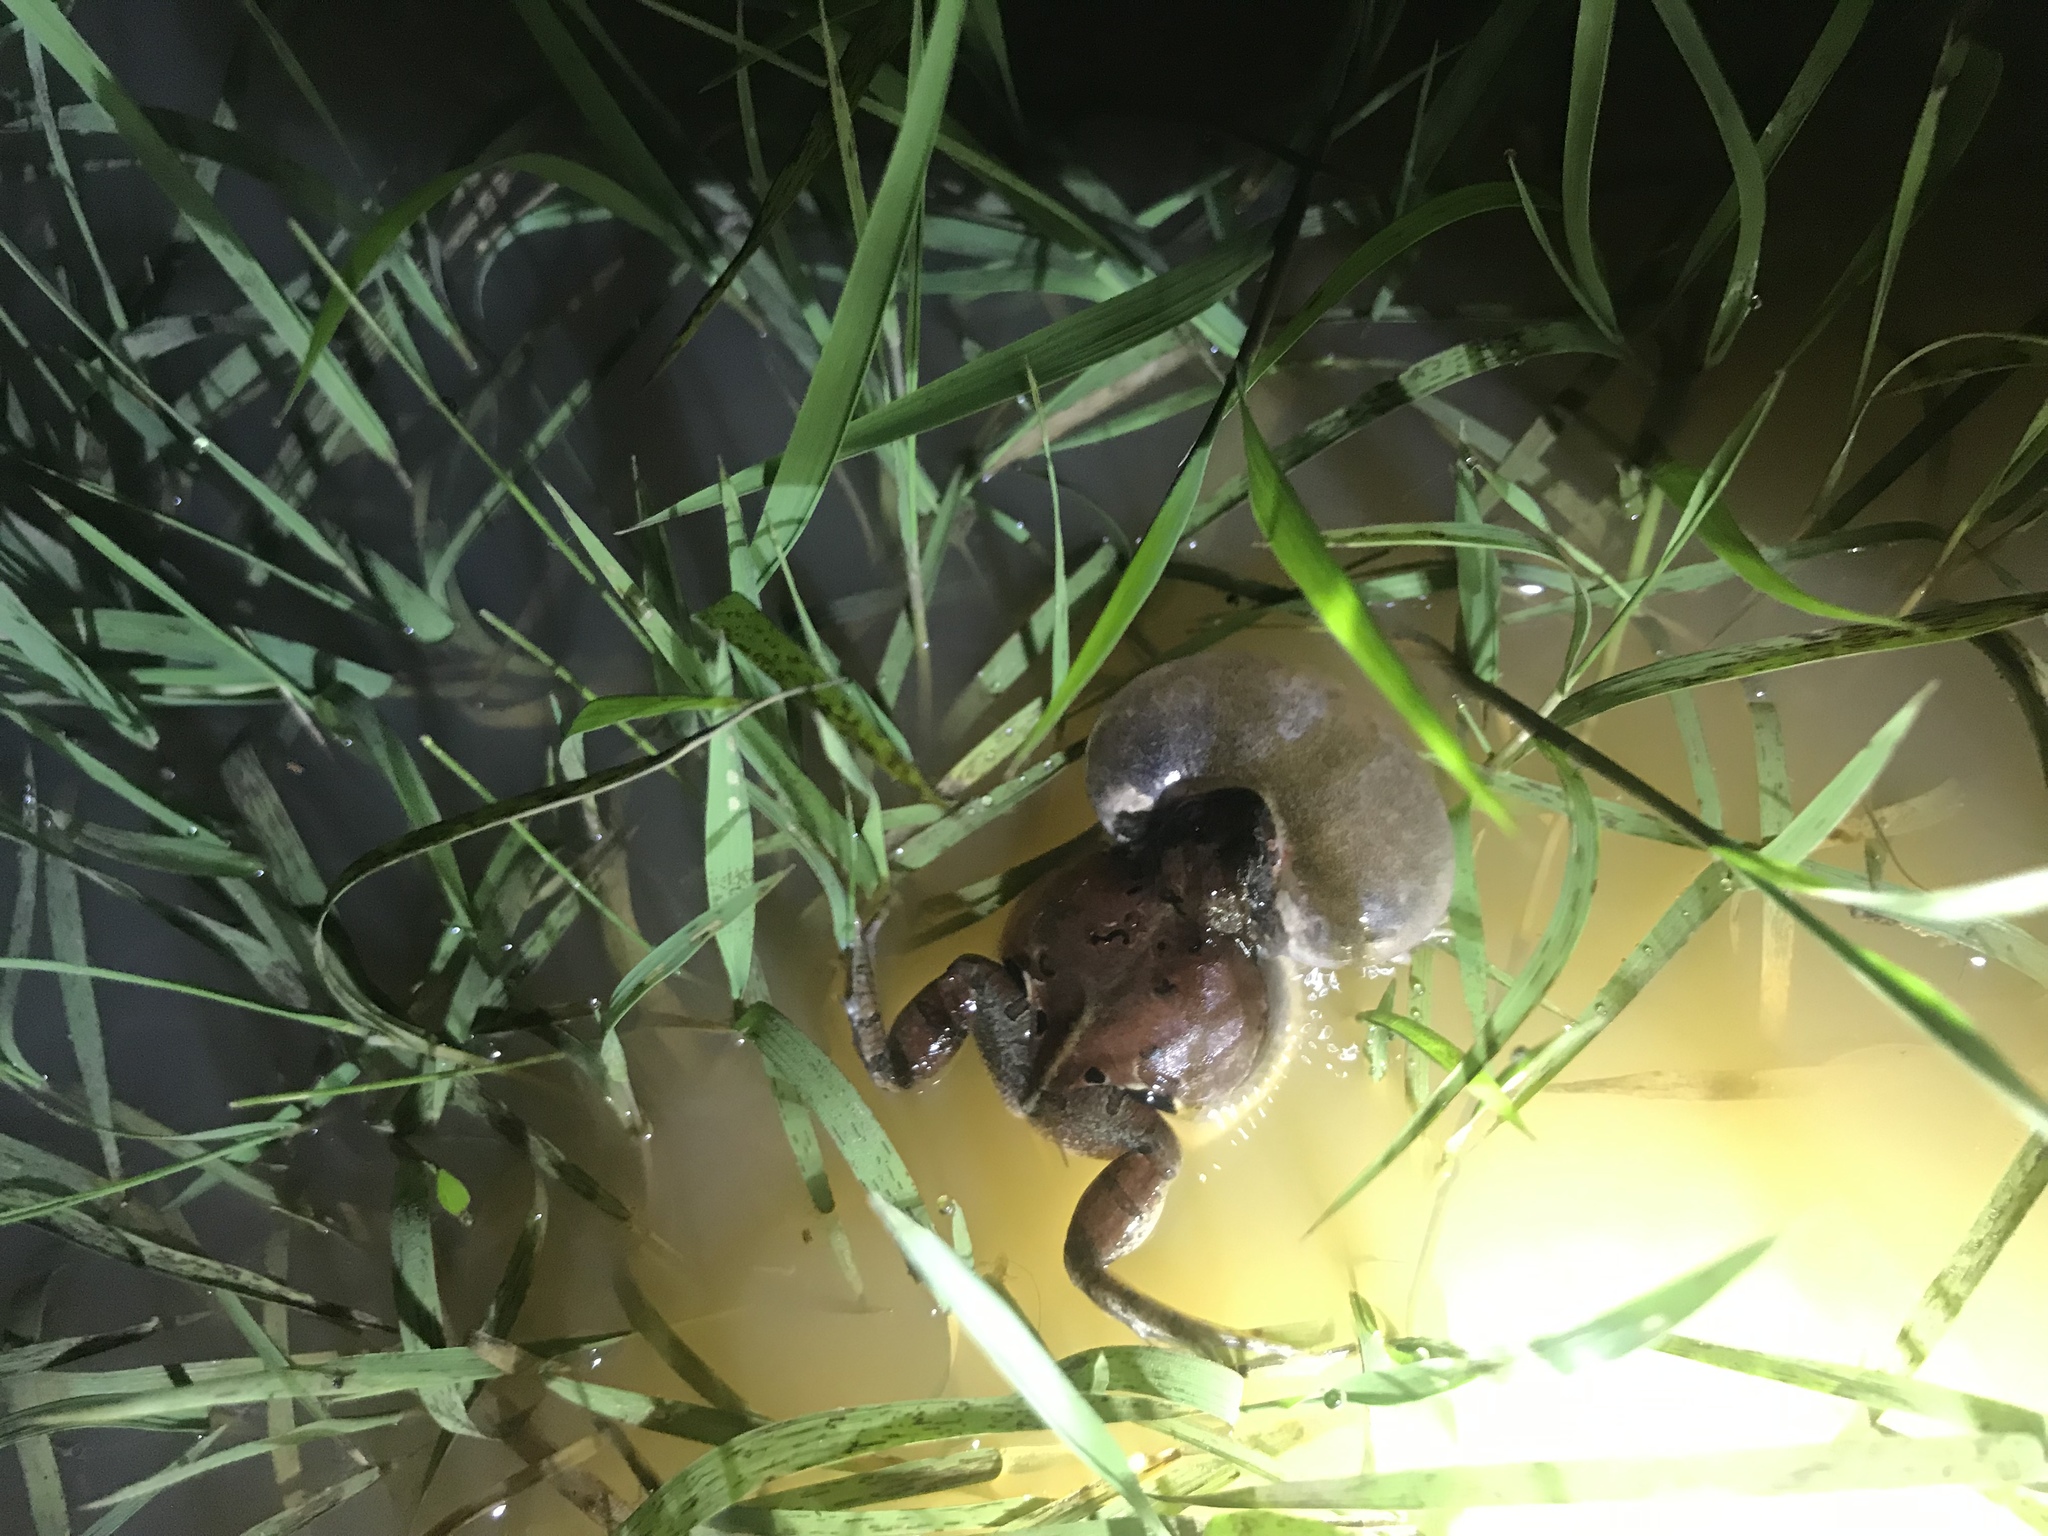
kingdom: Animalia
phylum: Chordata
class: Amphibia
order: Anura
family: Leptodactylidae
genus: Physalaemus
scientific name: Physalaemus biligonigerus
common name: Weeping frog
